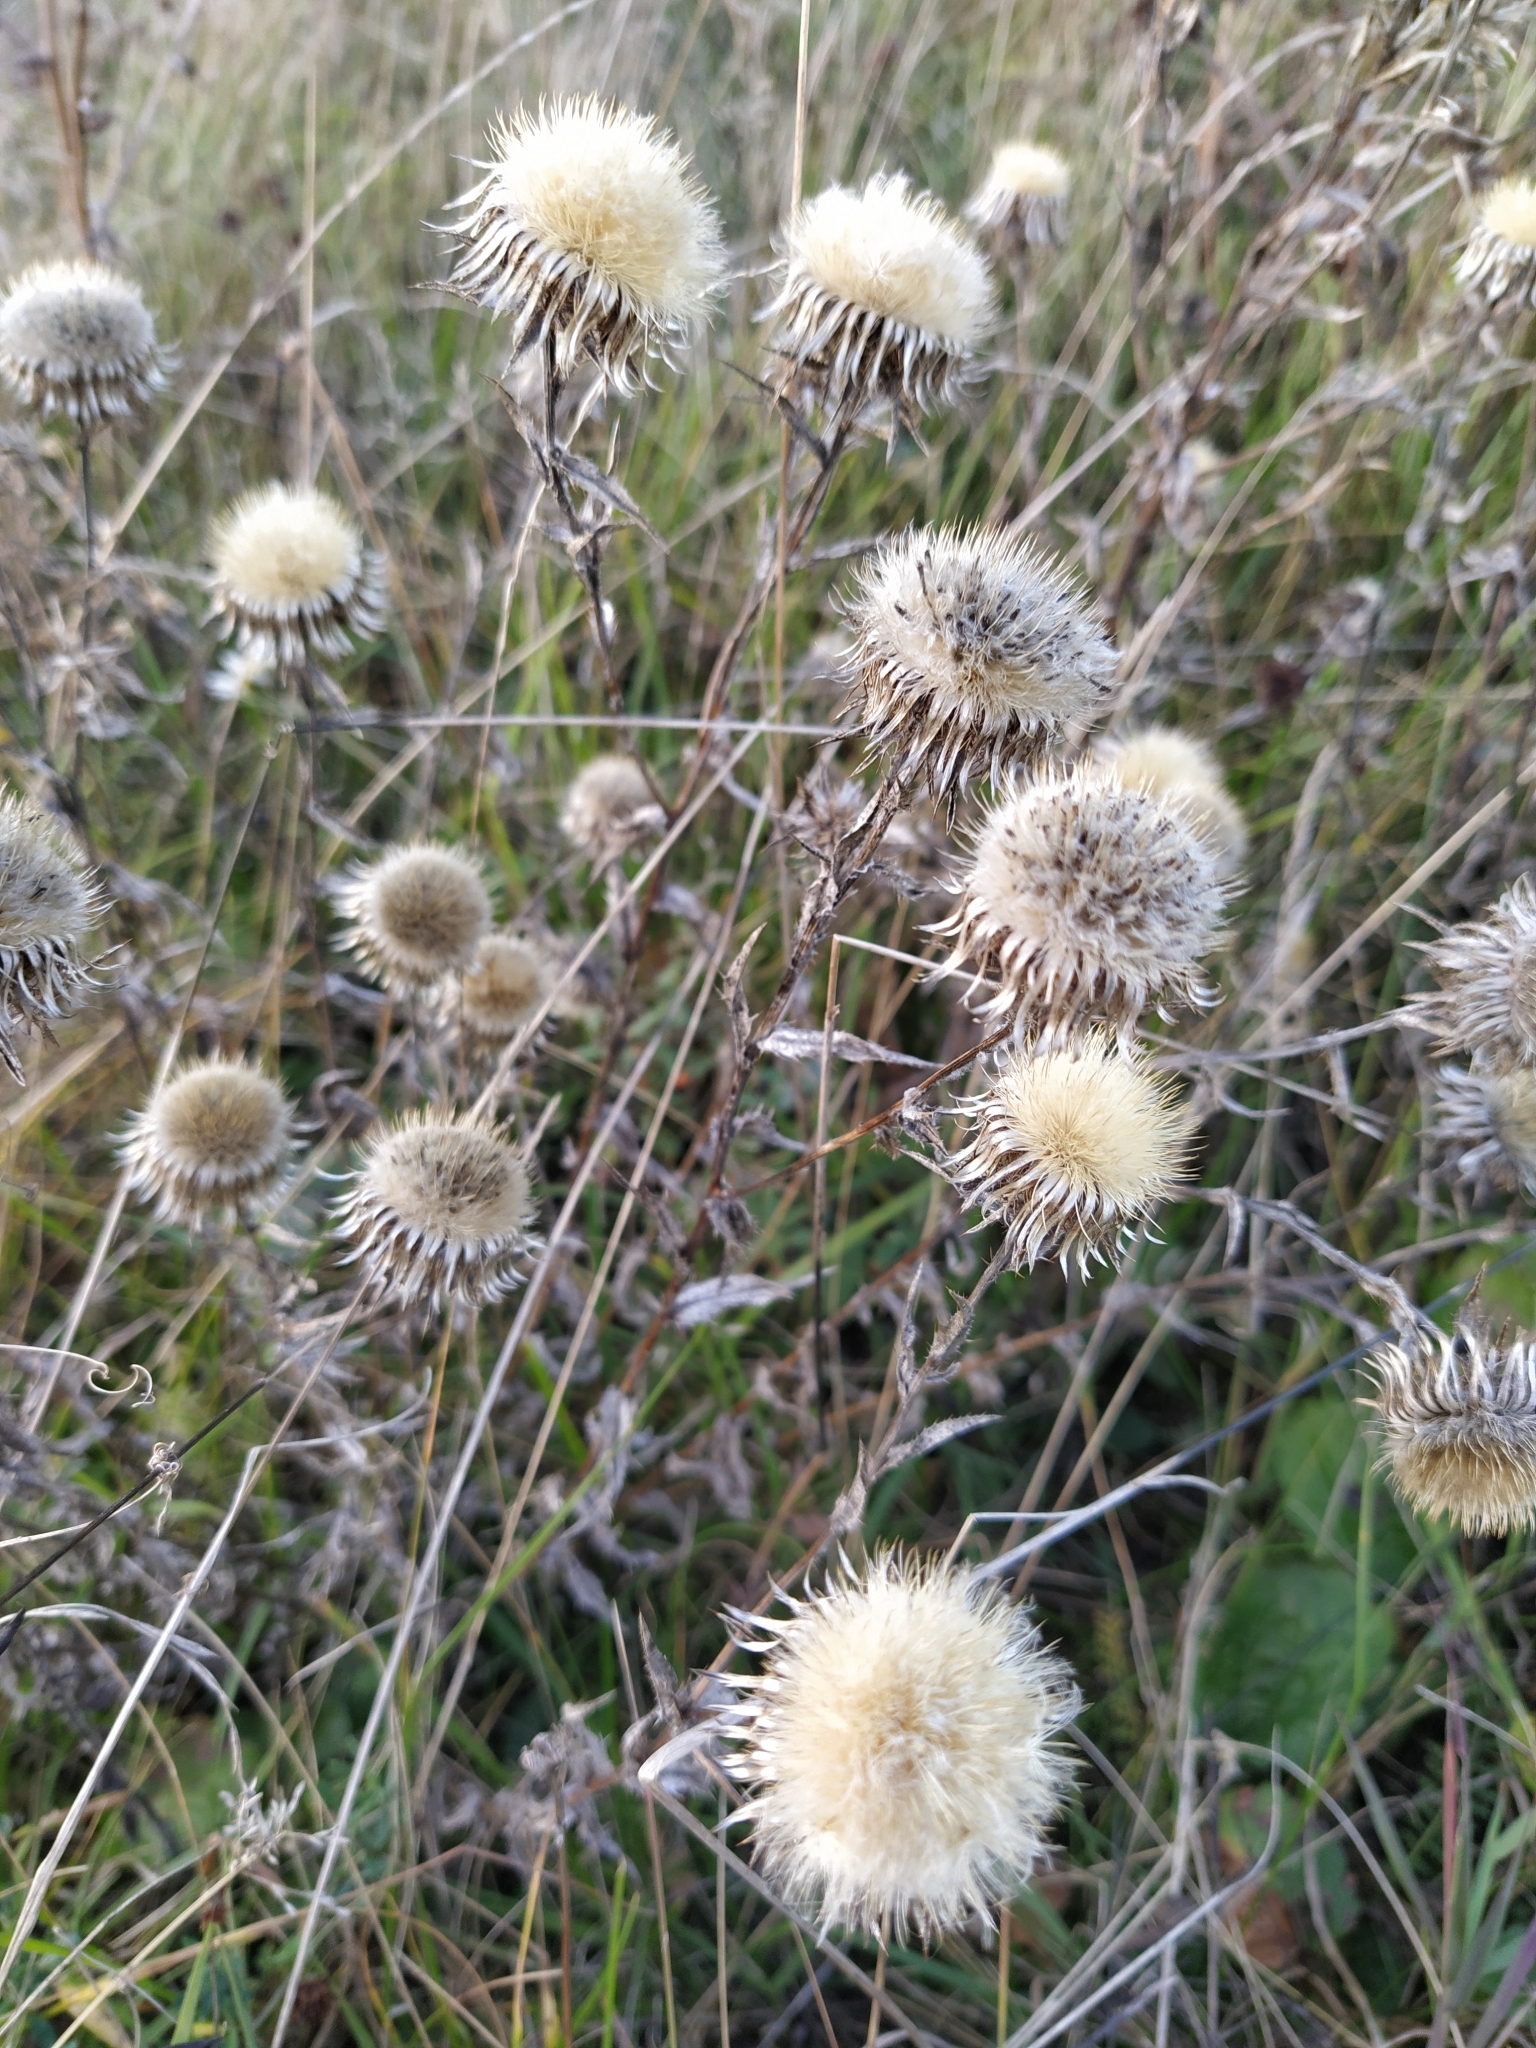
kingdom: Plantae
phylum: Tracheophyta
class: Magnoliopsida
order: Asterales
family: Asteraceae
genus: Carlina
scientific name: Carlina biebersteinii
